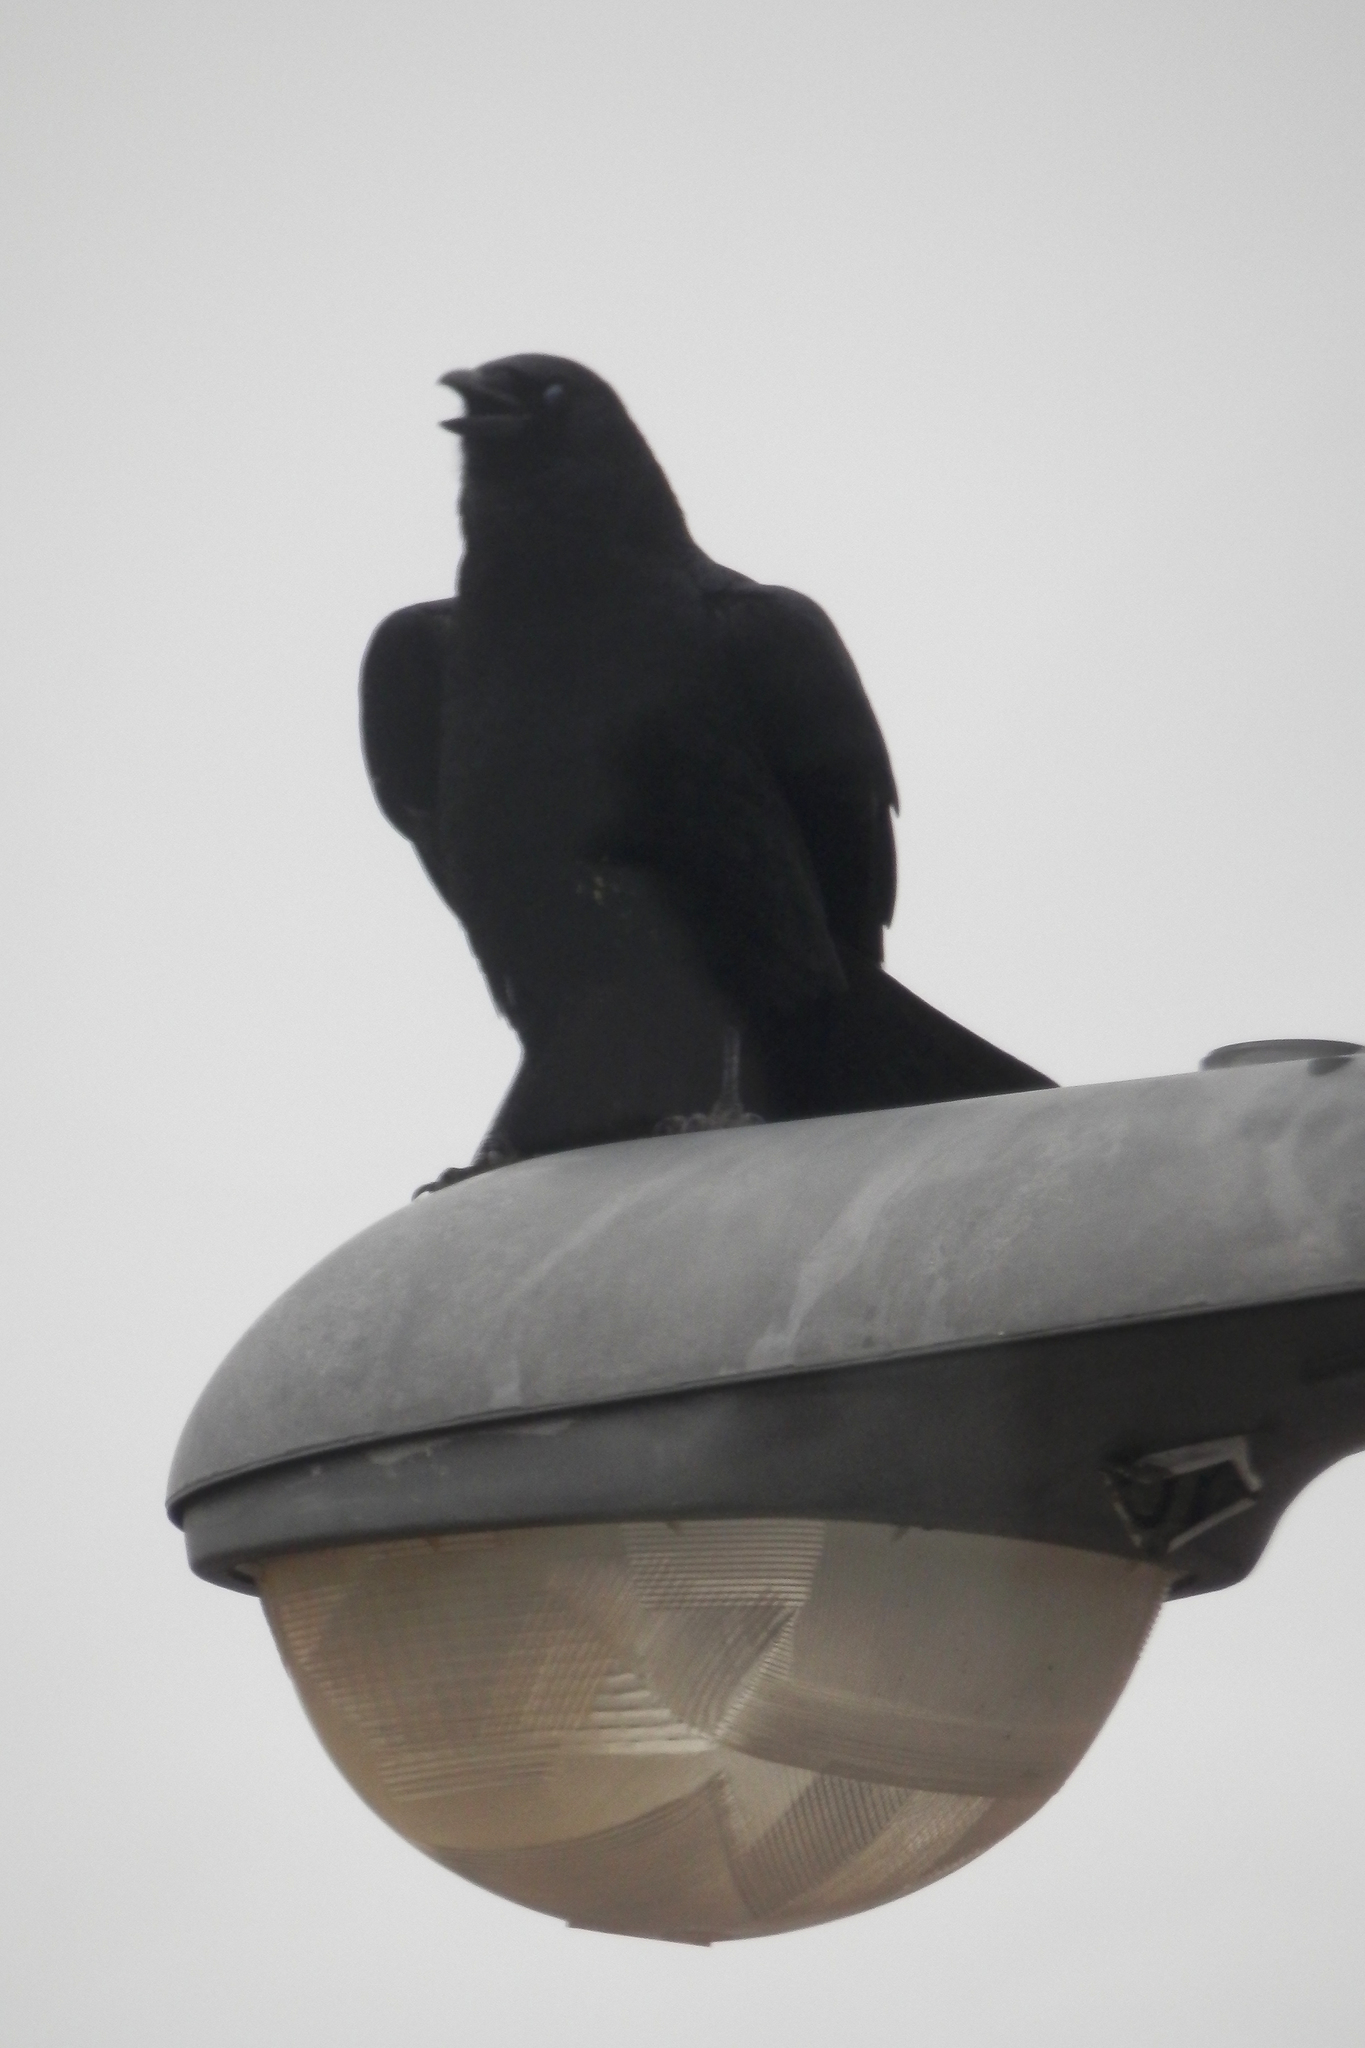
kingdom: Animalia
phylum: Chordata
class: Aves
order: Passeriformes
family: Corvidae
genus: Corvus
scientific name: Corvus brachyrhynchos
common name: American crow
